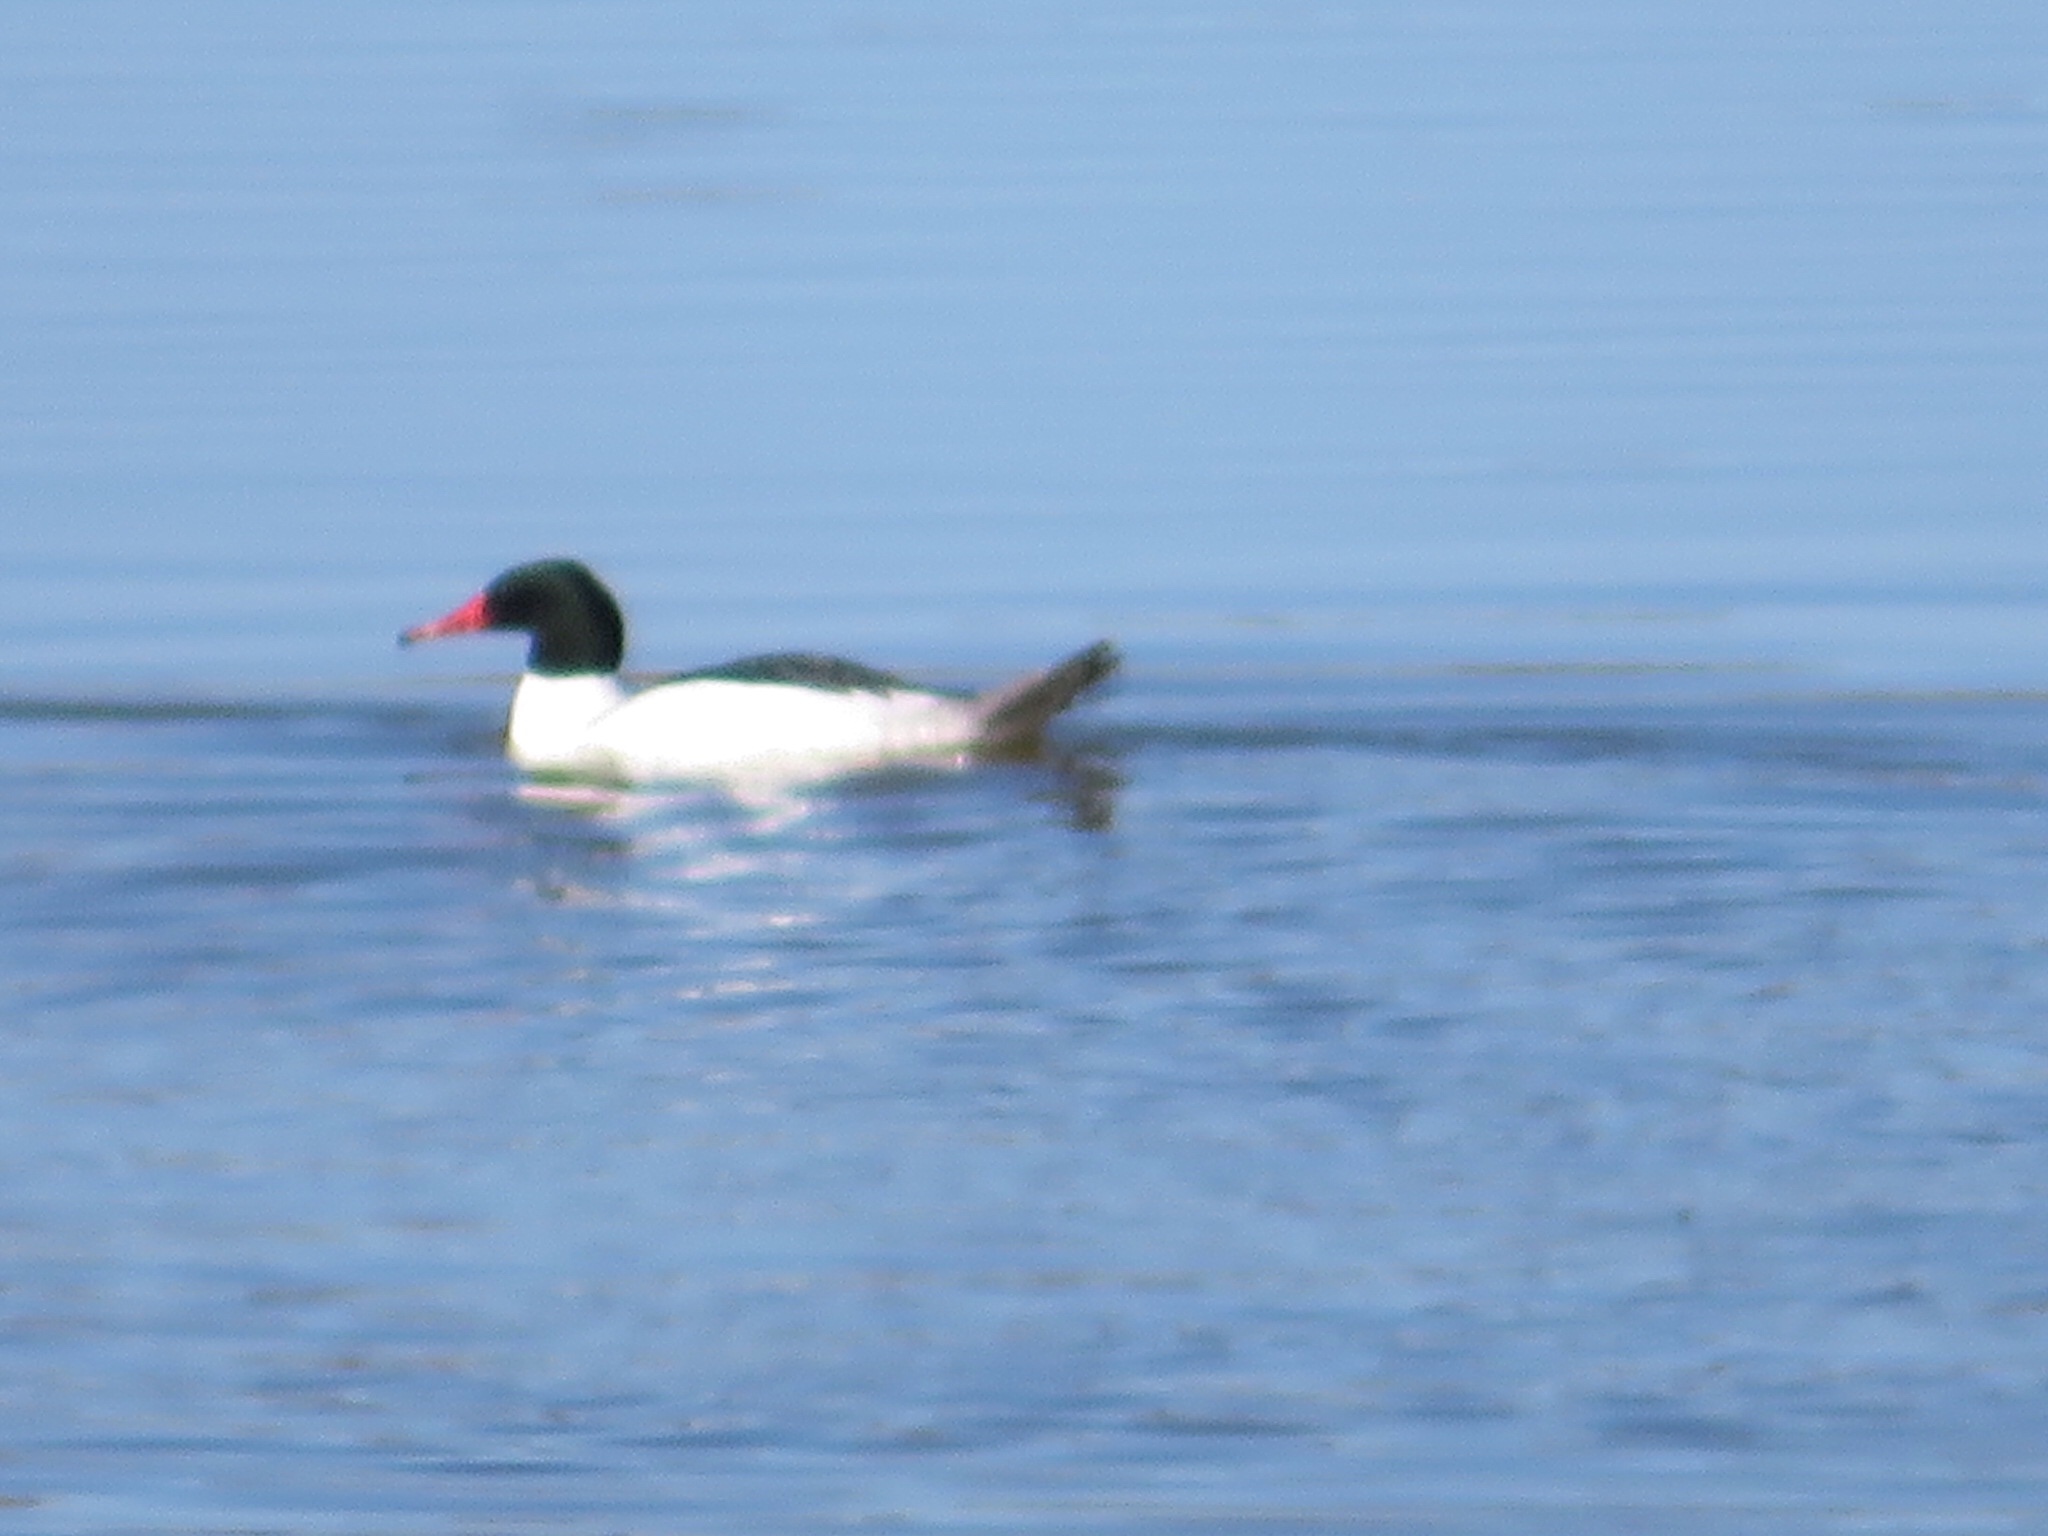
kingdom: Animalia
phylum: Chordata
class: Aves
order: Anseriformes
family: Anatidae
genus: Mergus
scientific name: Mergus merganser
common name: Common merganser
